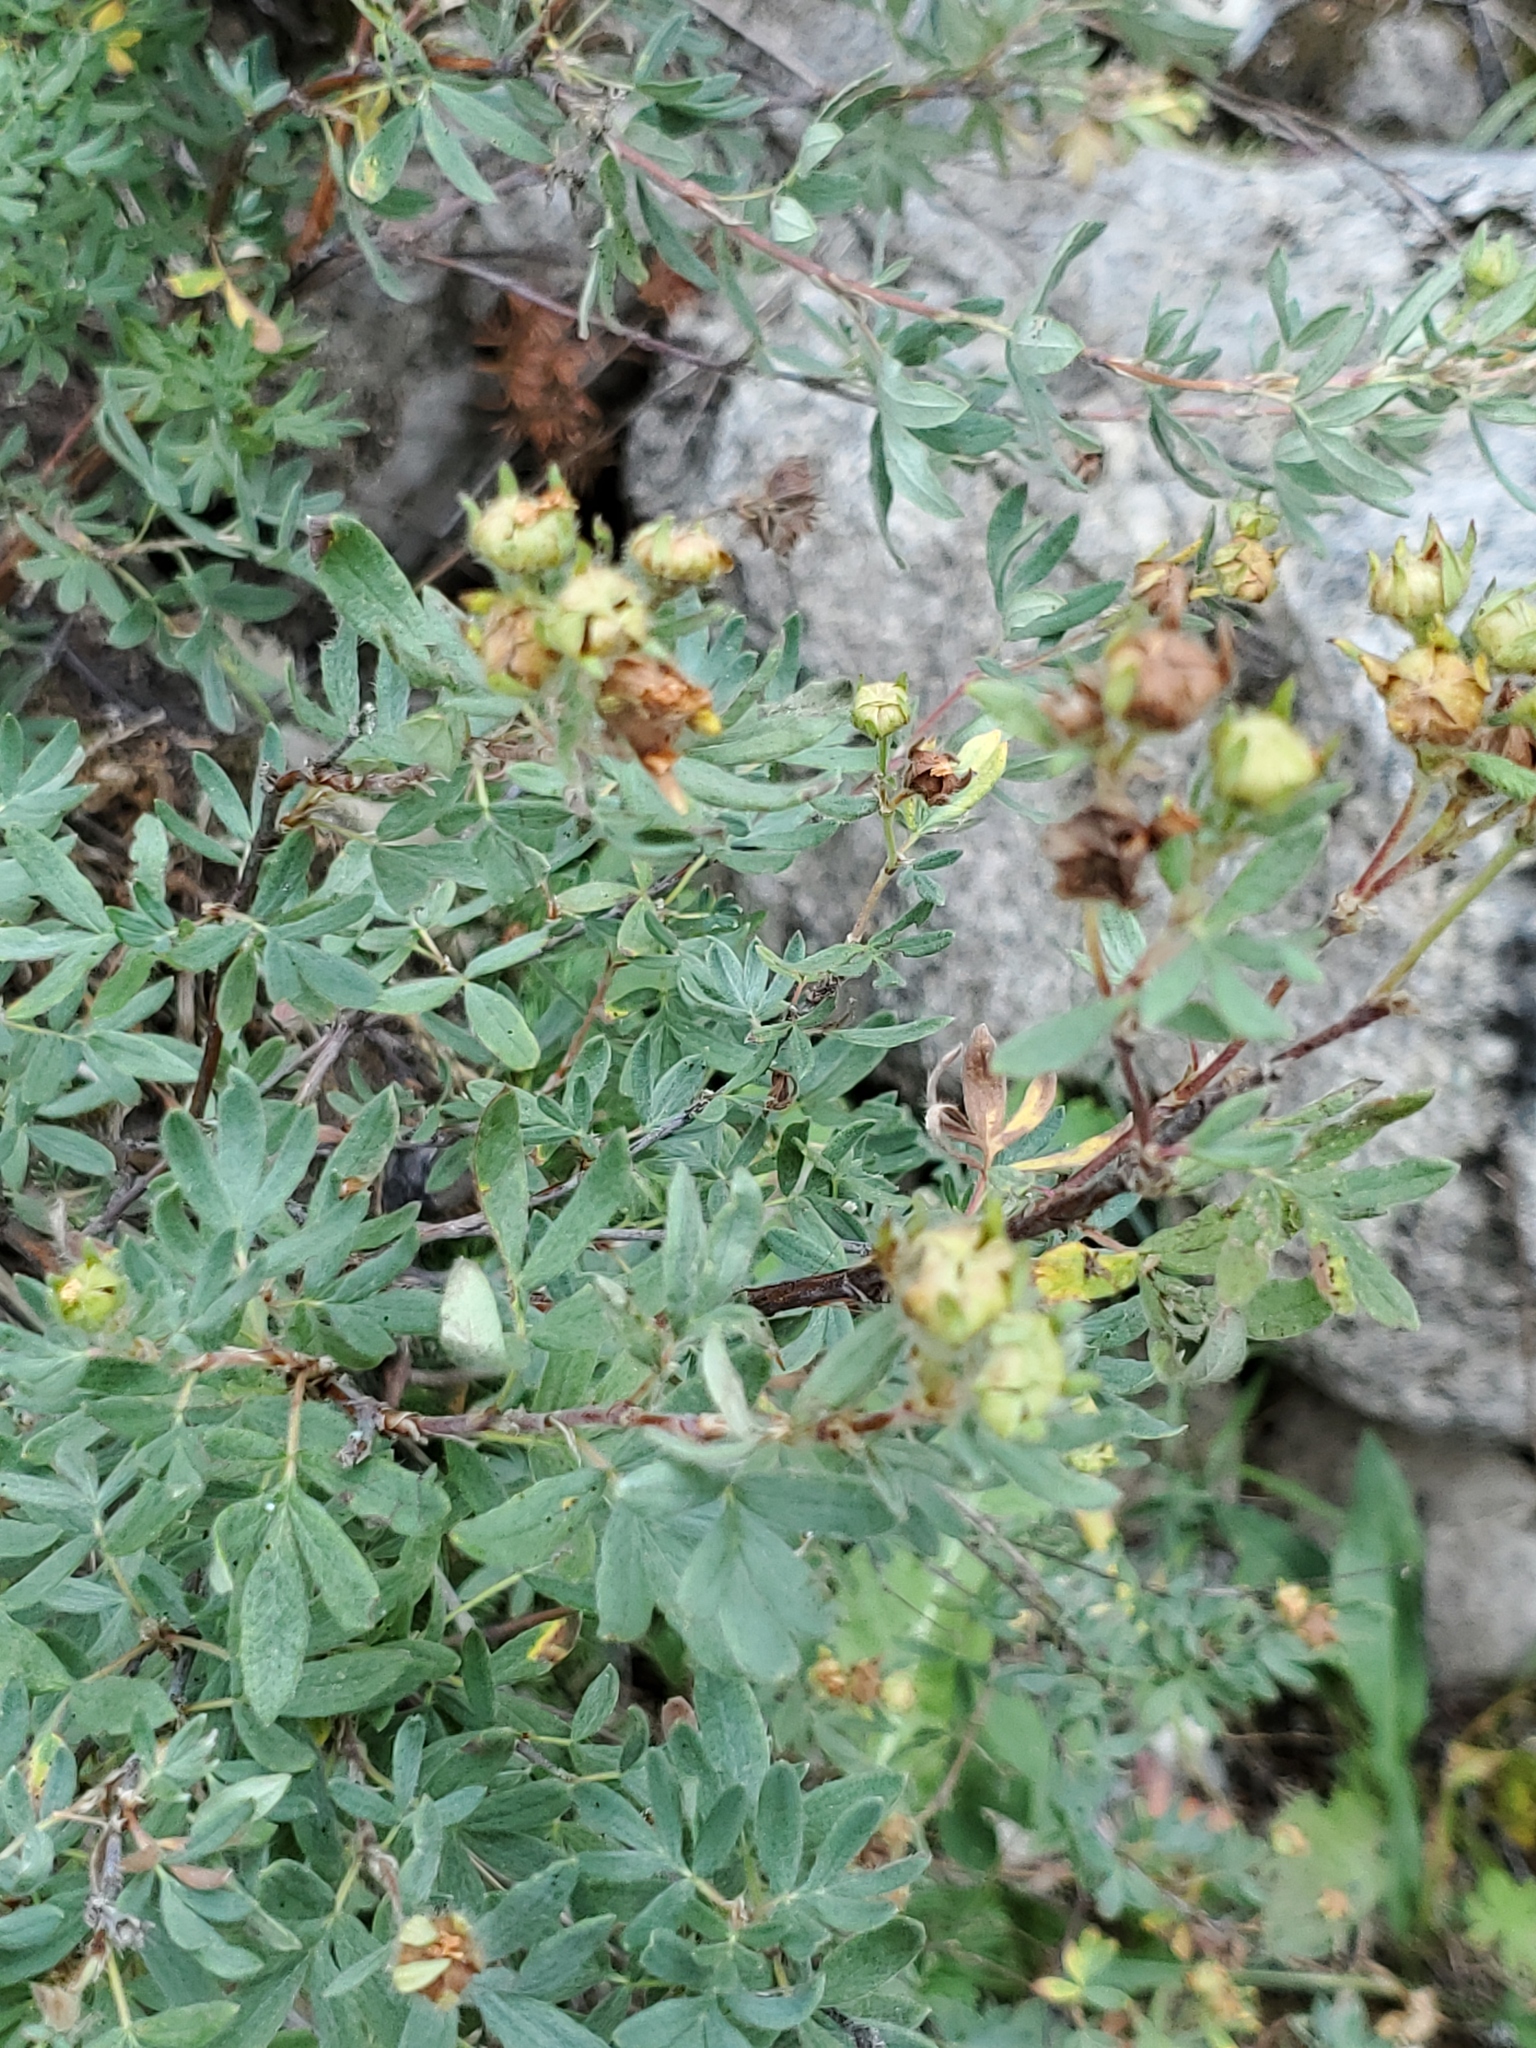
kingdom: Plantae
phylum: Tracheophyta
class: Magnoliopsida
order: Rosales
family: Rosaceae
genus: Dasiphora
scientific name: Dasiphora fruticosa
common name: Shrubby cinquefoil
